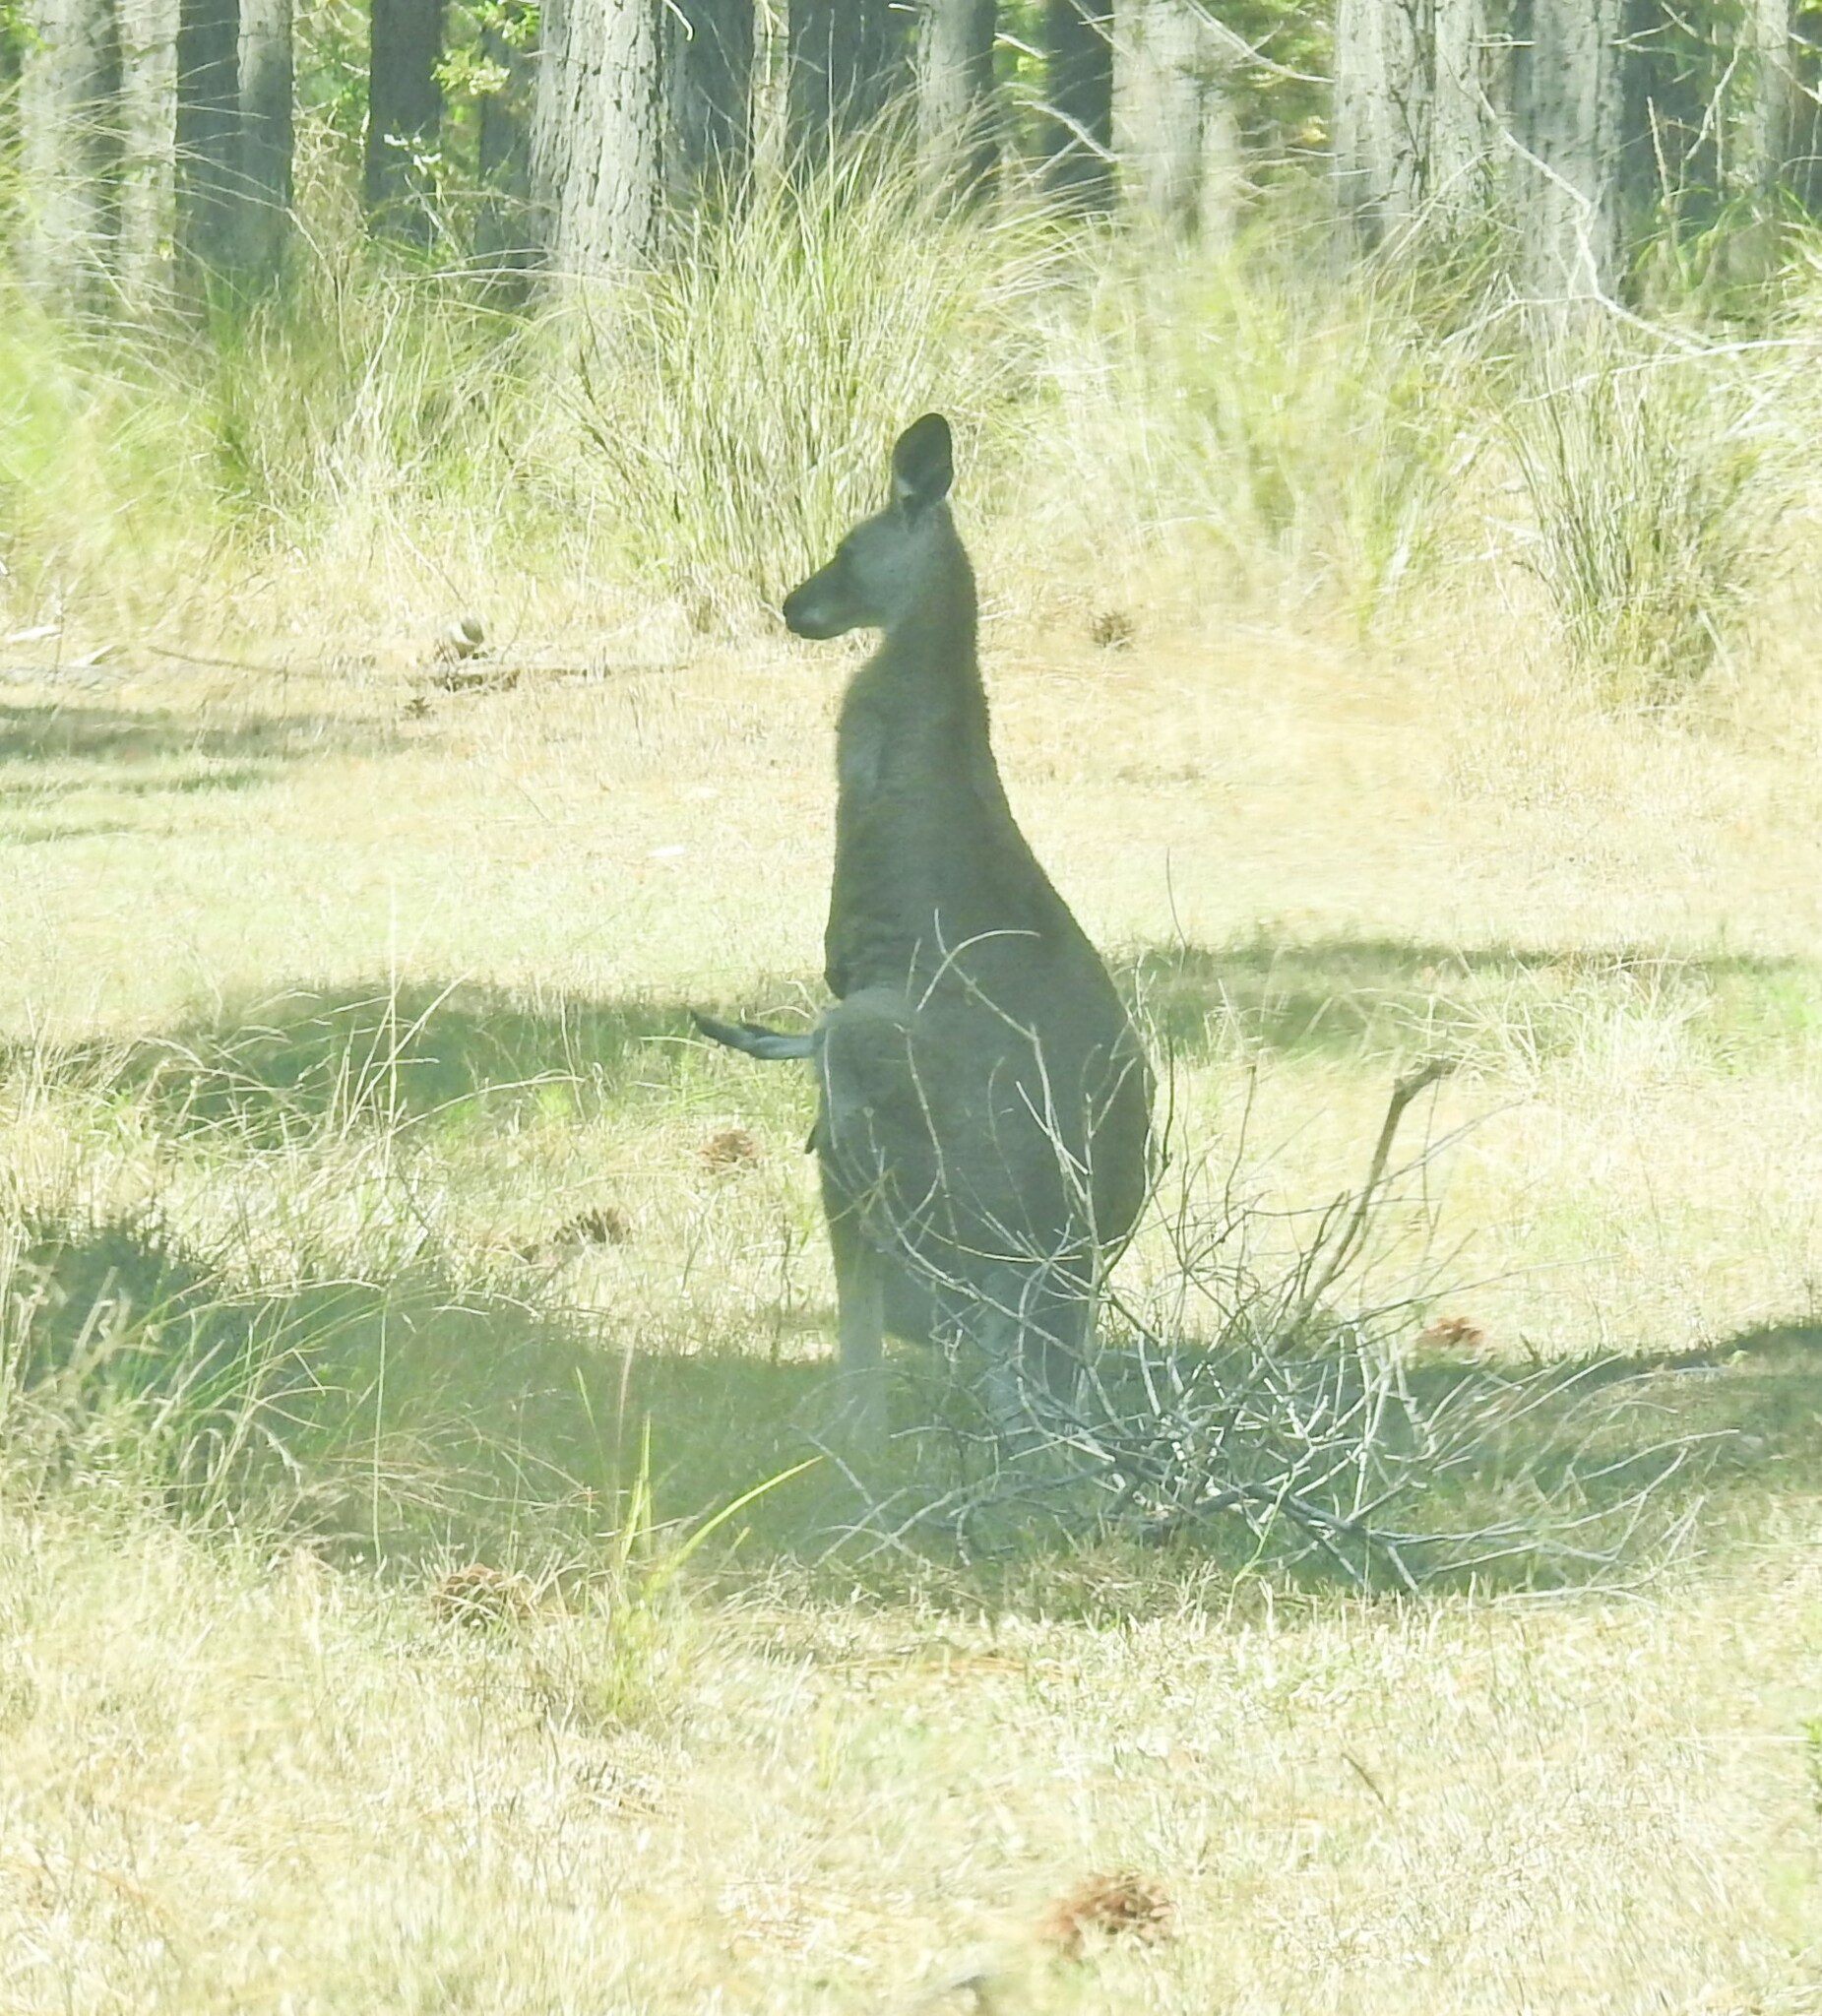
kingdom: Animalia
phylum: Chordata
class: Mammalia
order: Diprotodontia
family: Macropodidae
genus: Macropus
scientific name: Macropus giganteus
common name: Eastern grey kangaroo
